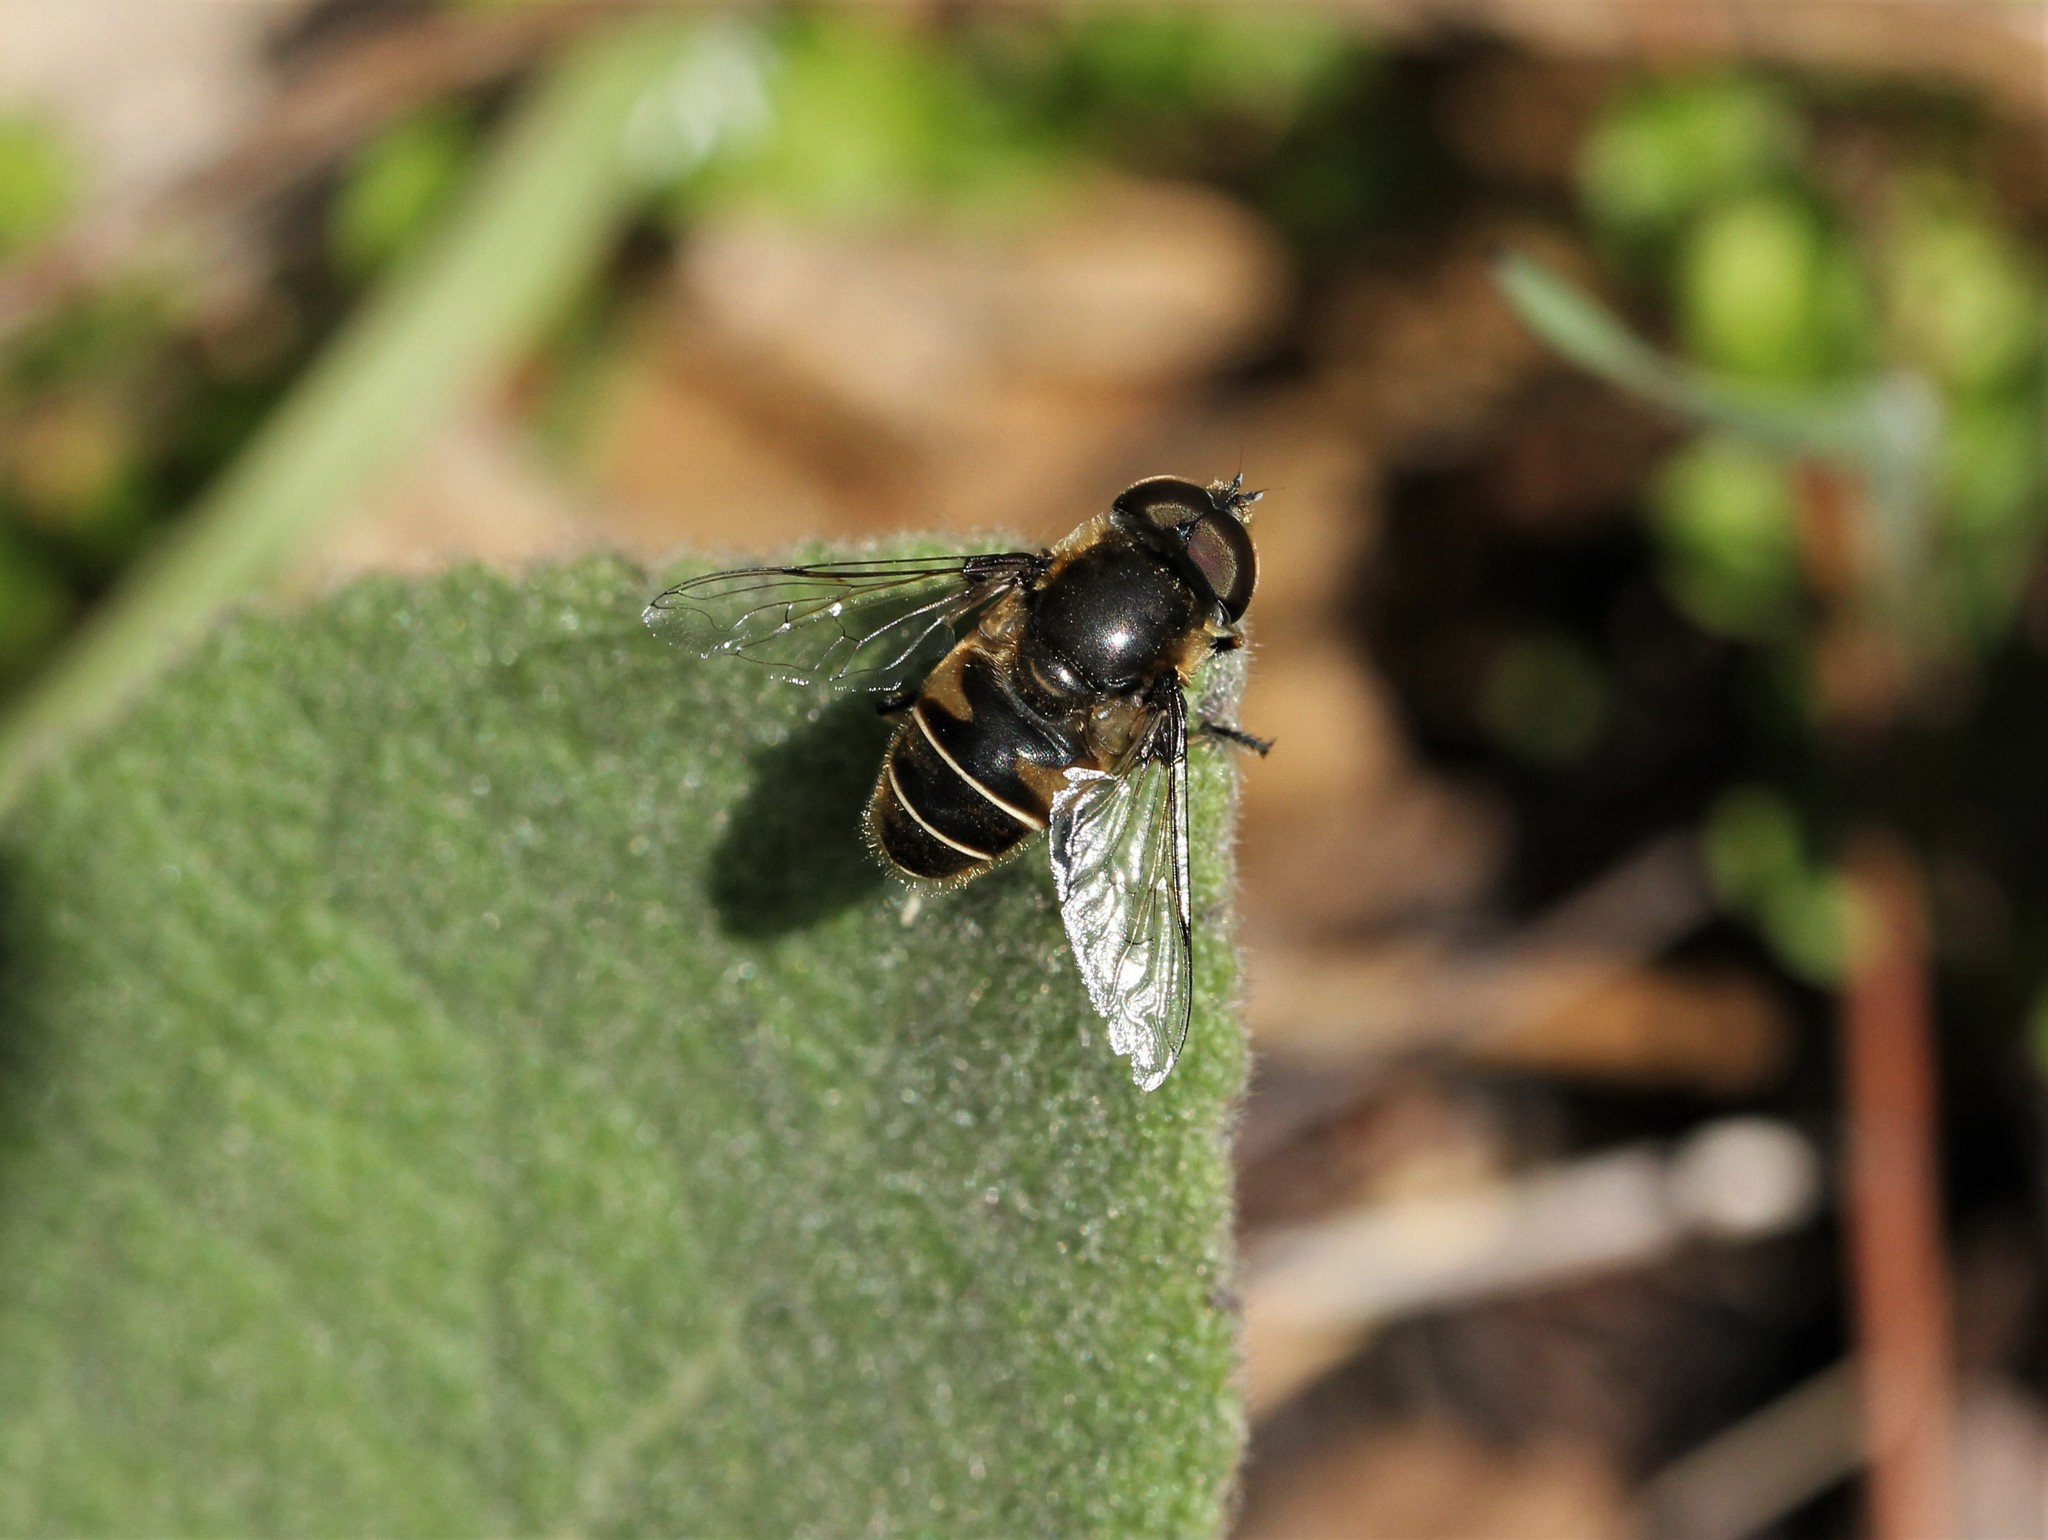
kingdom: Animalia
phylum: Arthropoda
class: Insecta
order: Diptera
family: Syrphidae
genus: Eristalis
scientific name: Eristalis dimidiata
